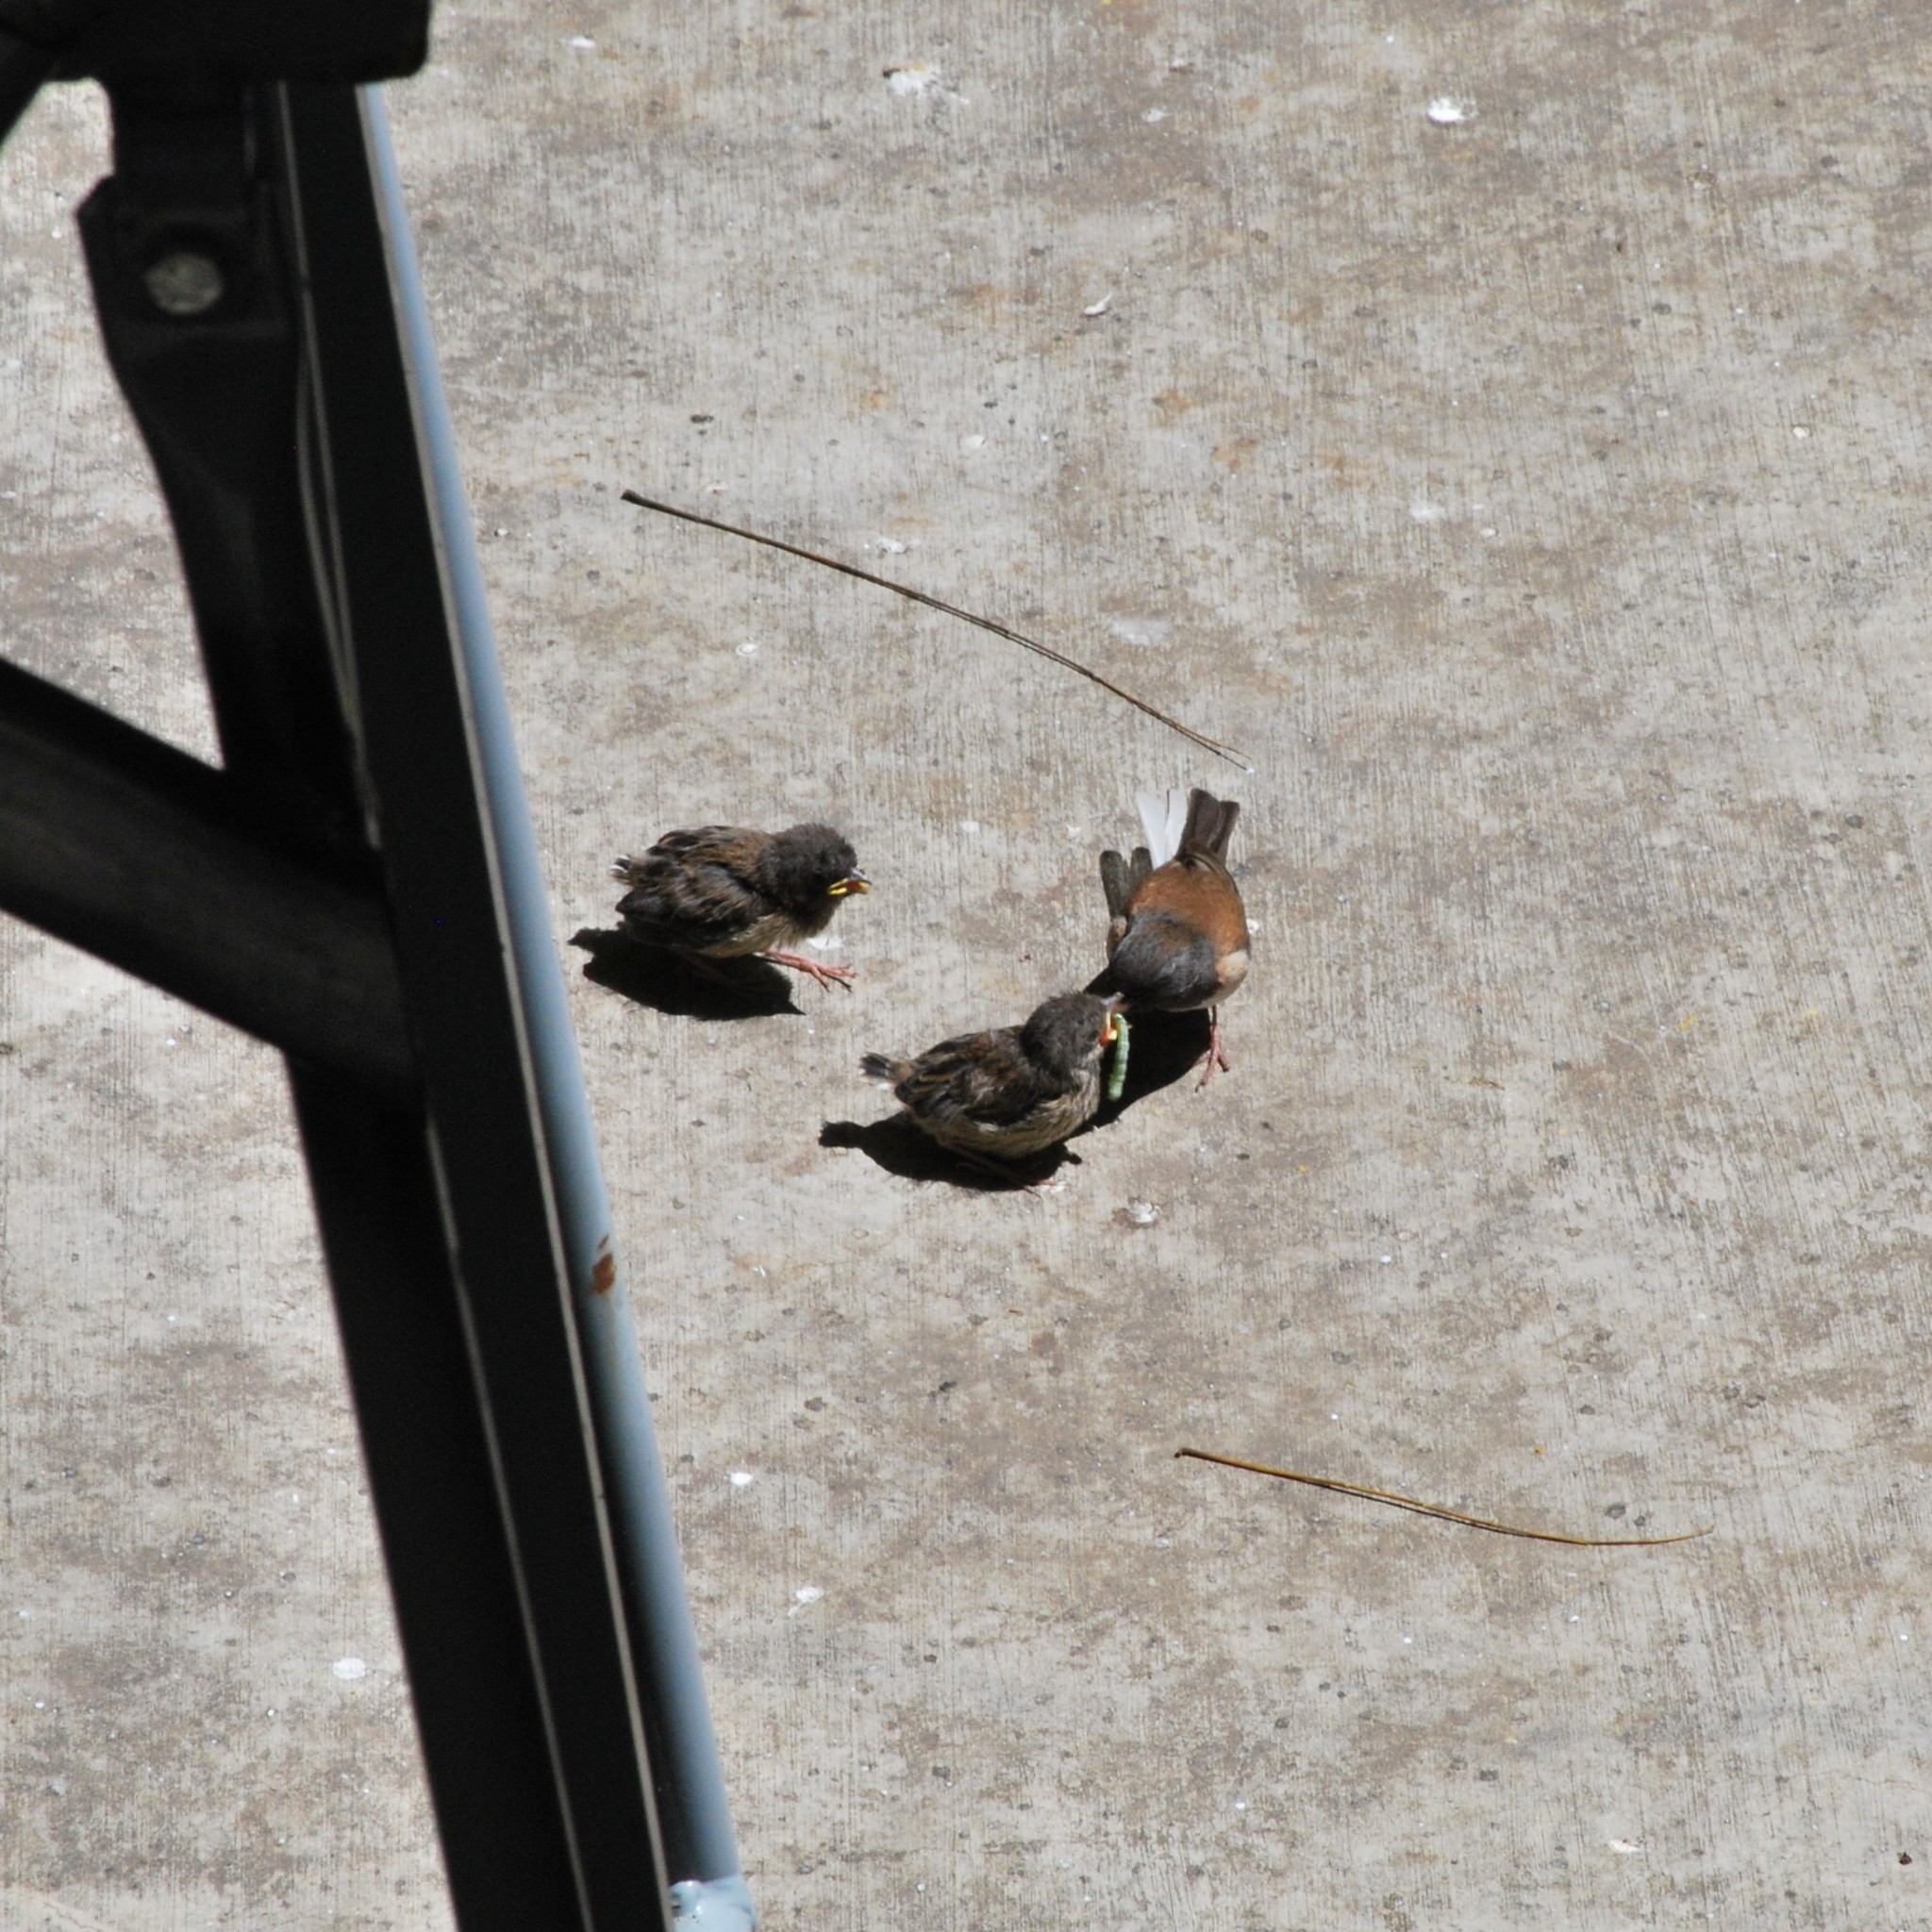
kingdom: Animalia
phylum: Chordata
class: Aves
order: Passeriformes
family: Passerellidae
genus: Junco
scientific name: Junco hyemalis
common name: Dark-eyed junco
